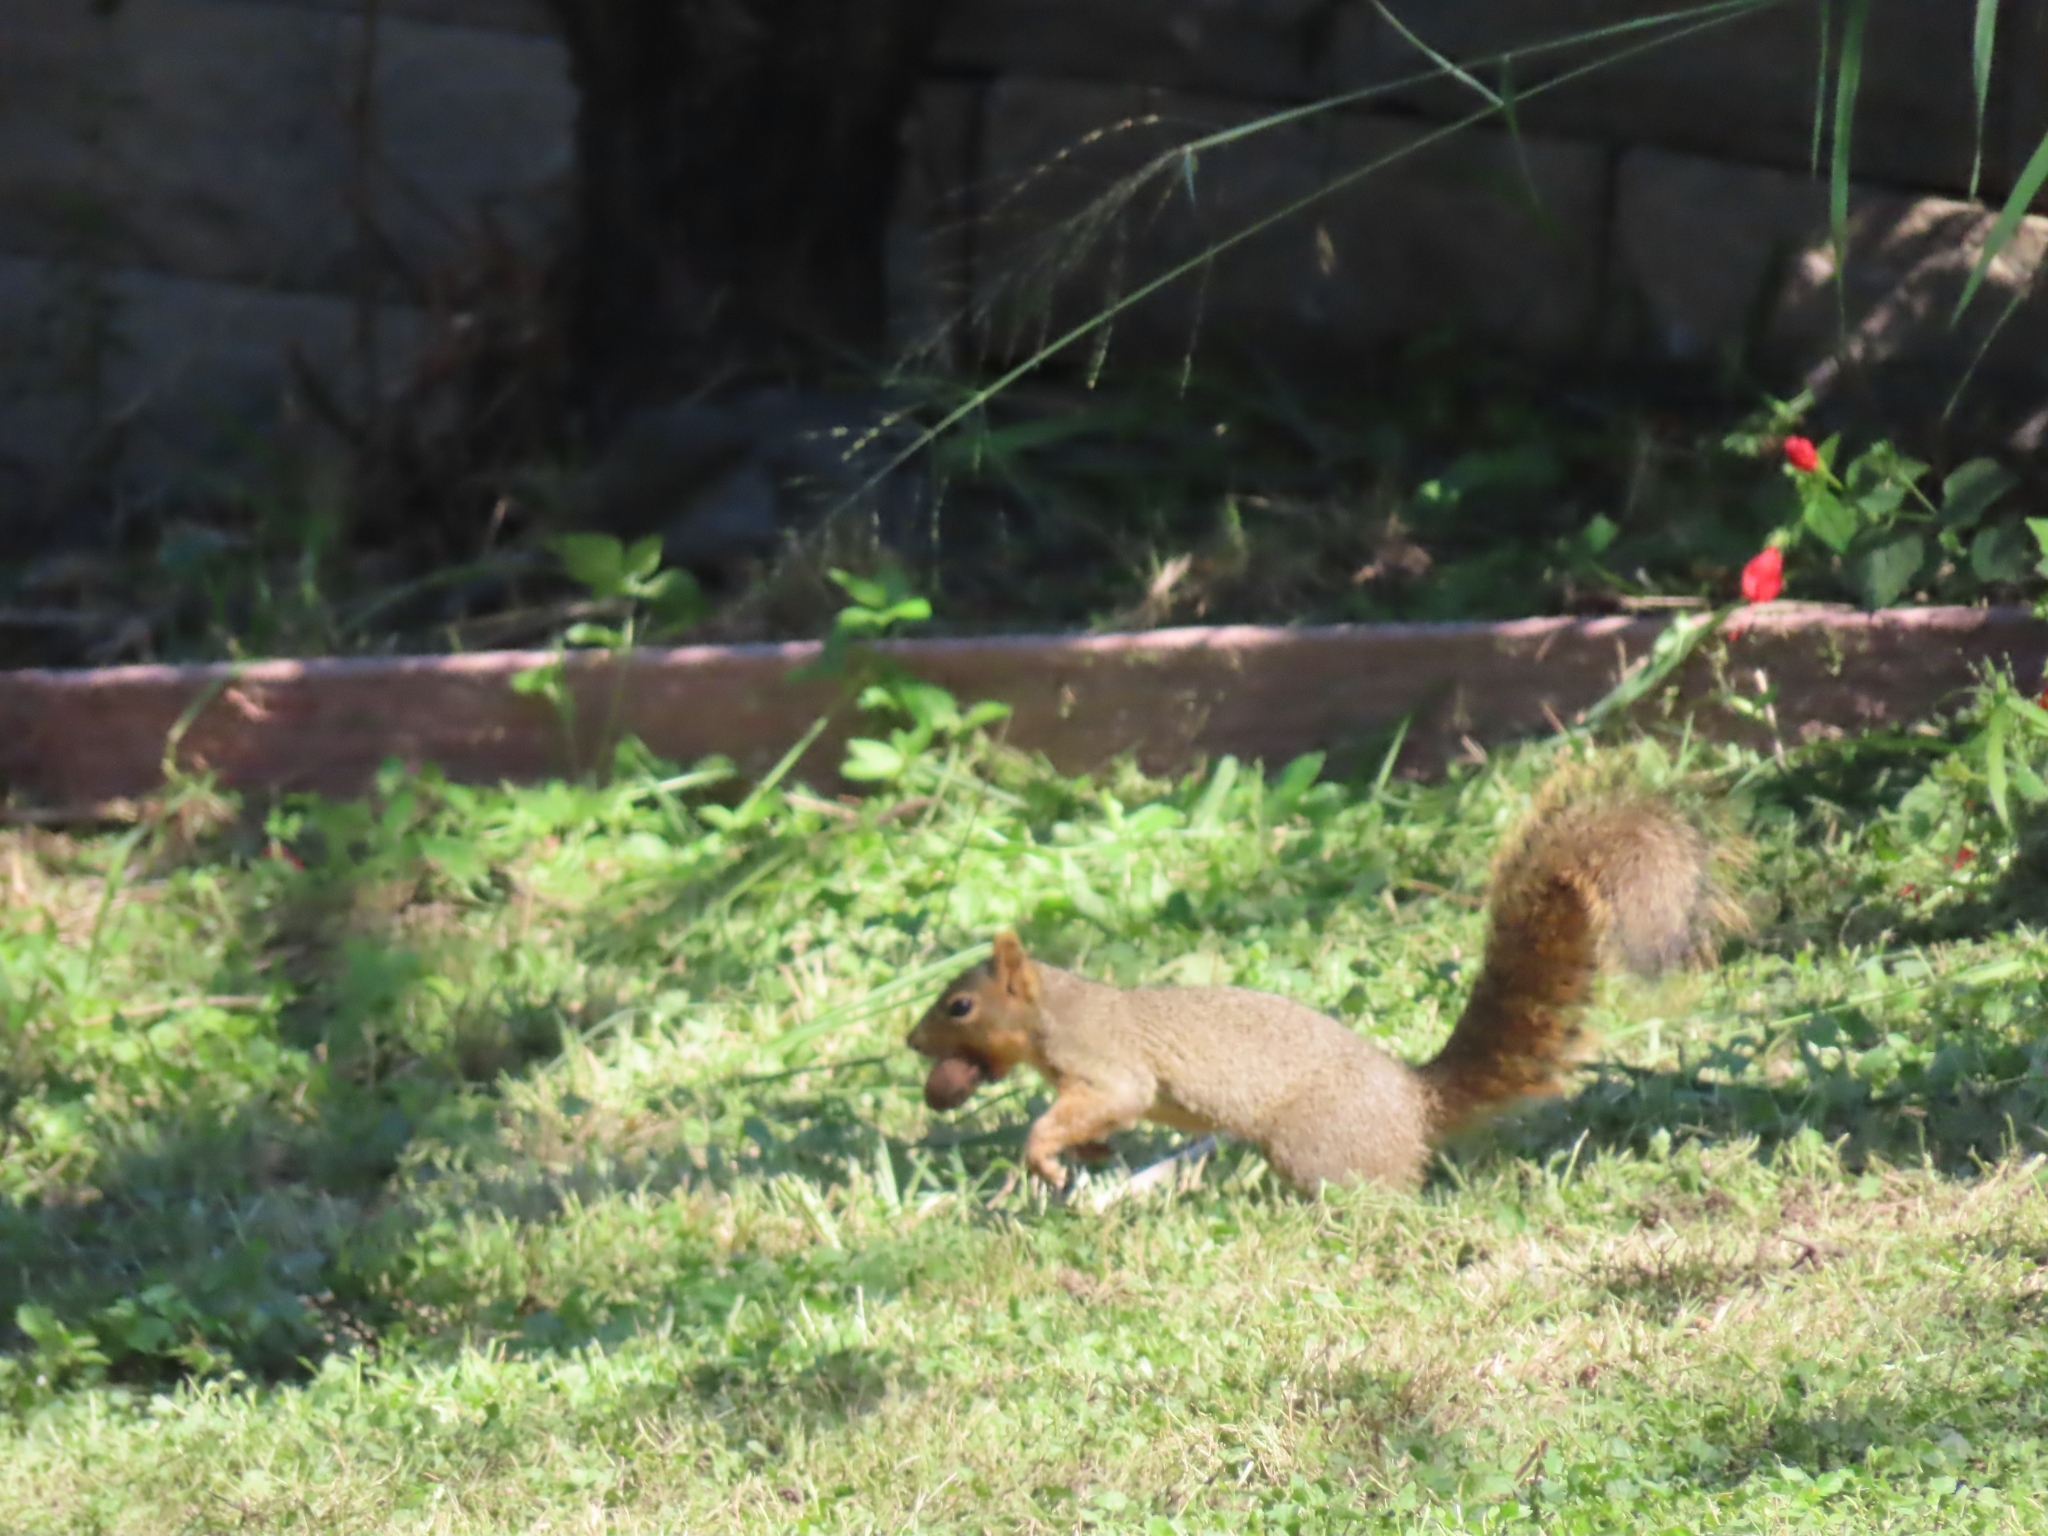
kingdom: Animalia
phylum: Chordata
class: Mammalia
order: Rodentia
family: Sciuridae
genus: Sciurus
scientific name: Sciurus niger
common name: Fox squirrel
